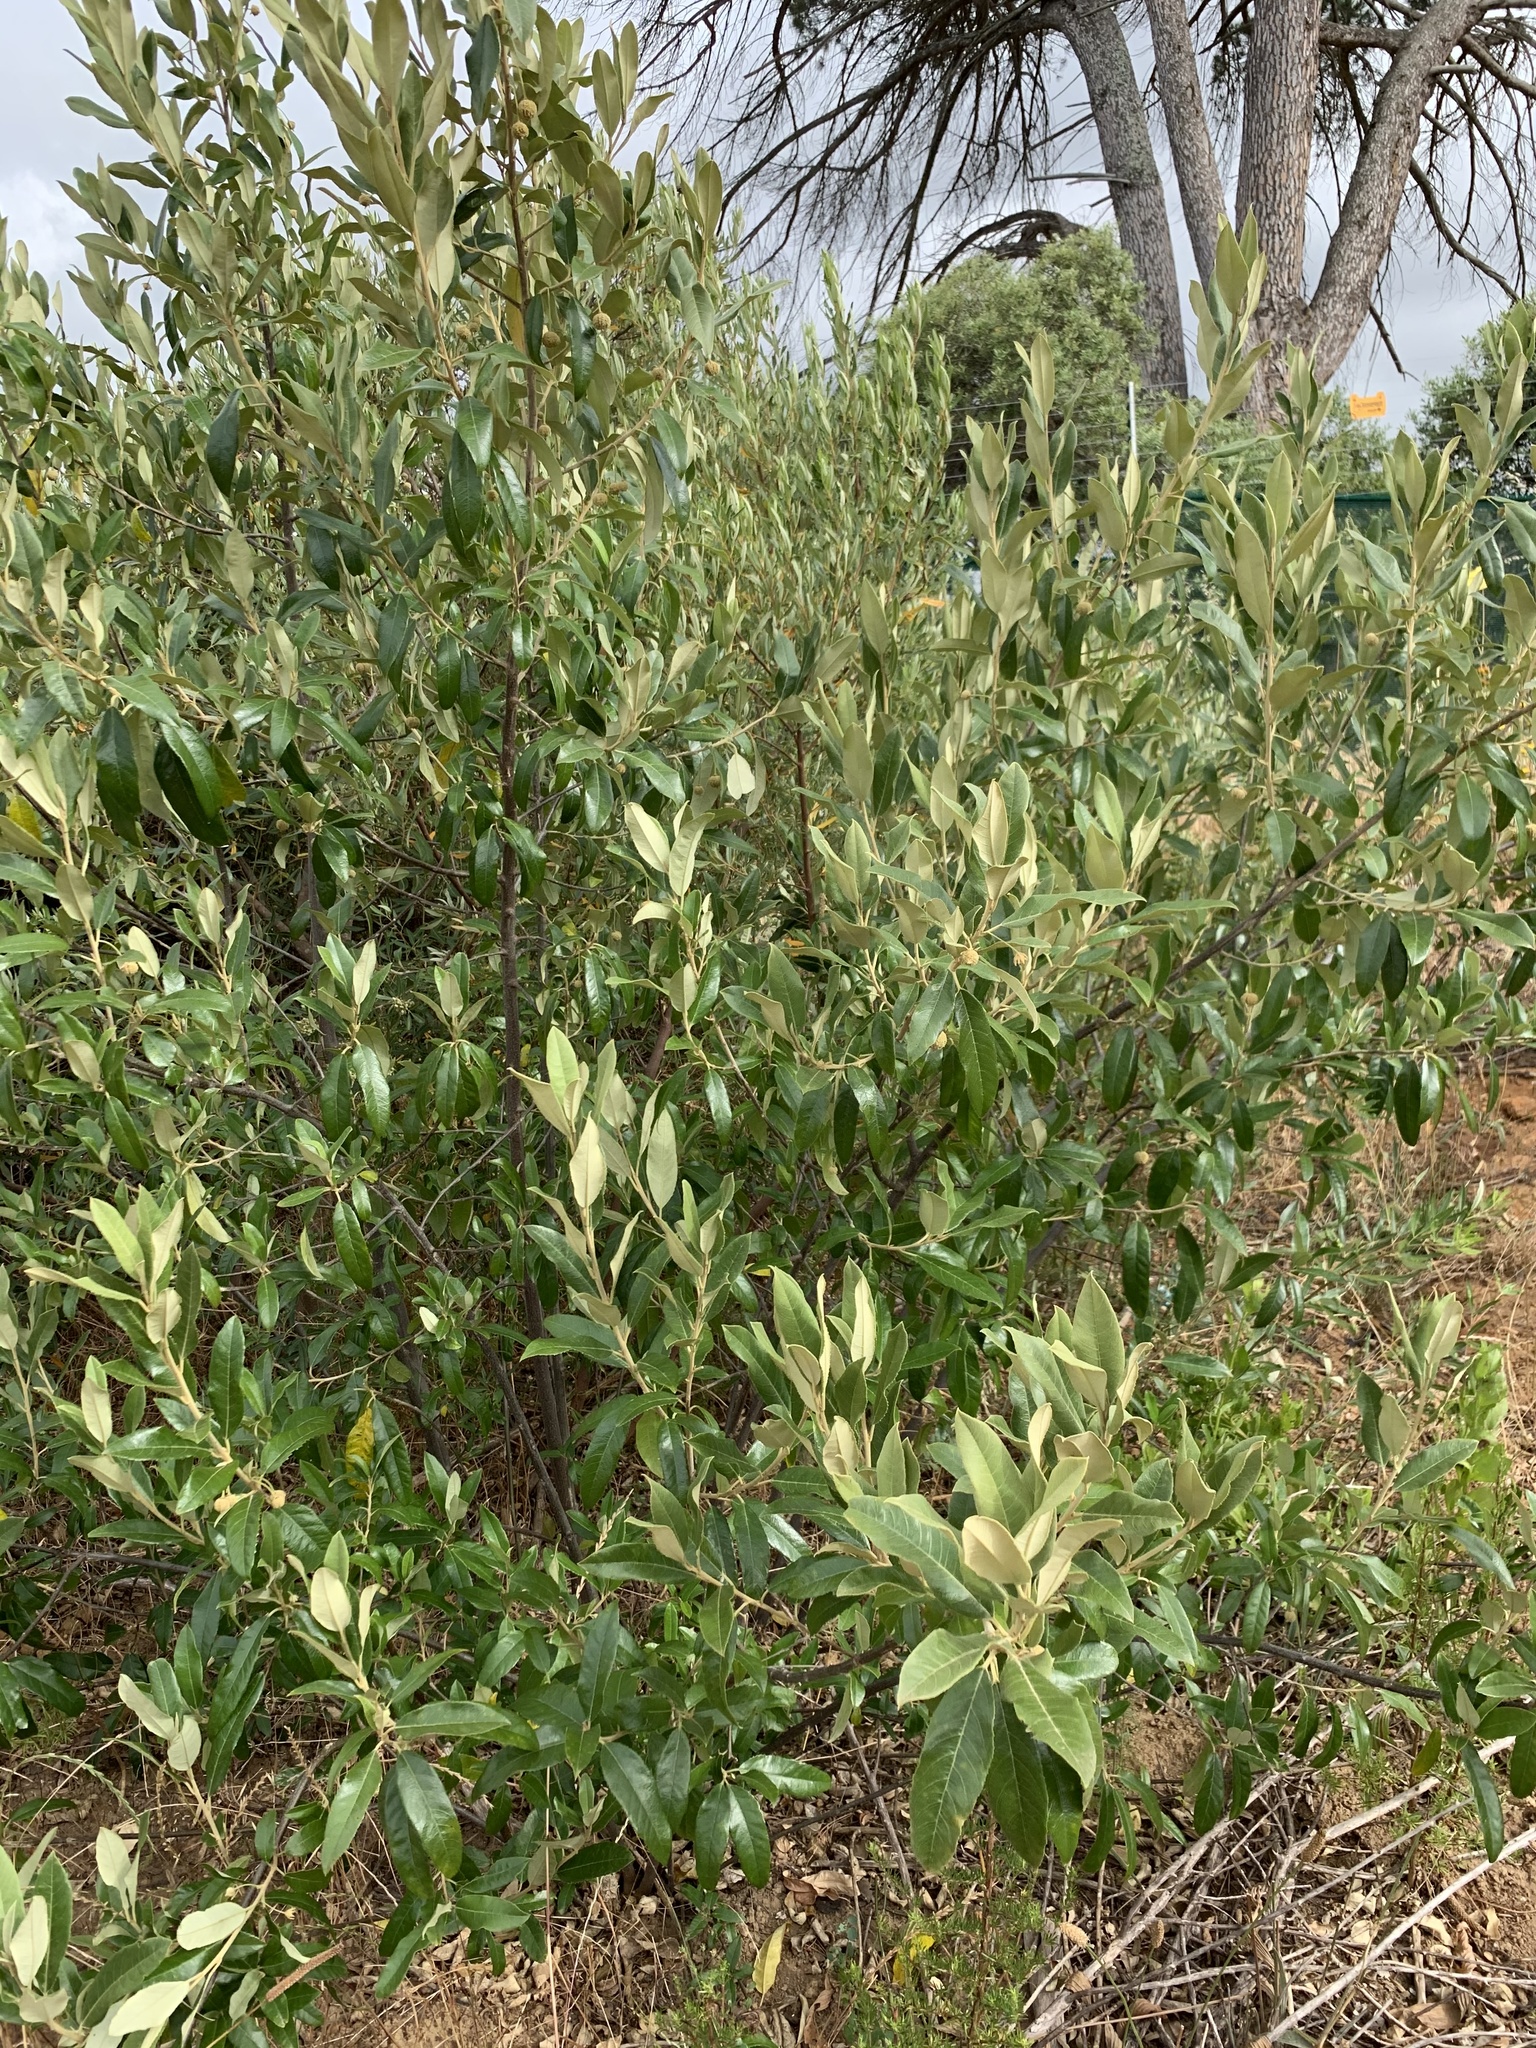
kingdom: Plantae
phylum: Tracheophyta
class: Magnoliopsida
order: Malpighiales
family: Achariaceae
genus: Kiggelaria
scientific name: Kiggelaria africana
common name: Wild peach
